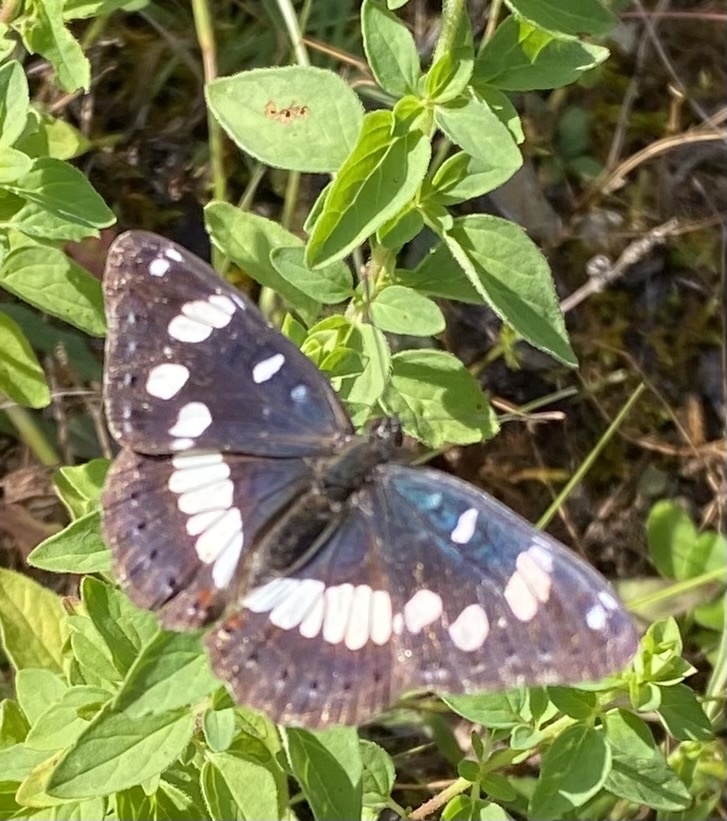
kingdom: Animalia
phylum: Arthropoda
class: Insecta
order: Lepidoptera
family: Nymphalidae
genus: Limenitis
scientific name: Limenitis reducta
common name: Southern white admiral
